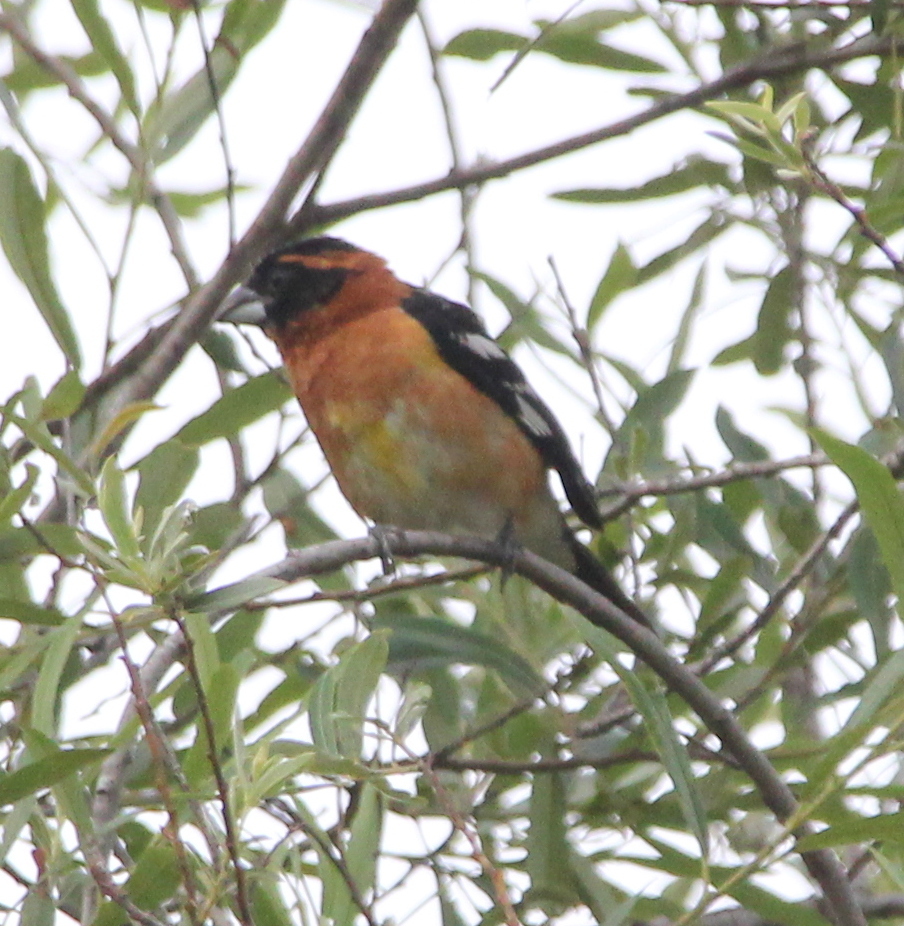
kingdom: Animalia
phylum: Chordata
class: Aves
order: Passeriformes
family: Cardinalidae
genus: Pheucticus
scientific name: Pheucticus melanocephalus
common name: Black-headed grosbeak
